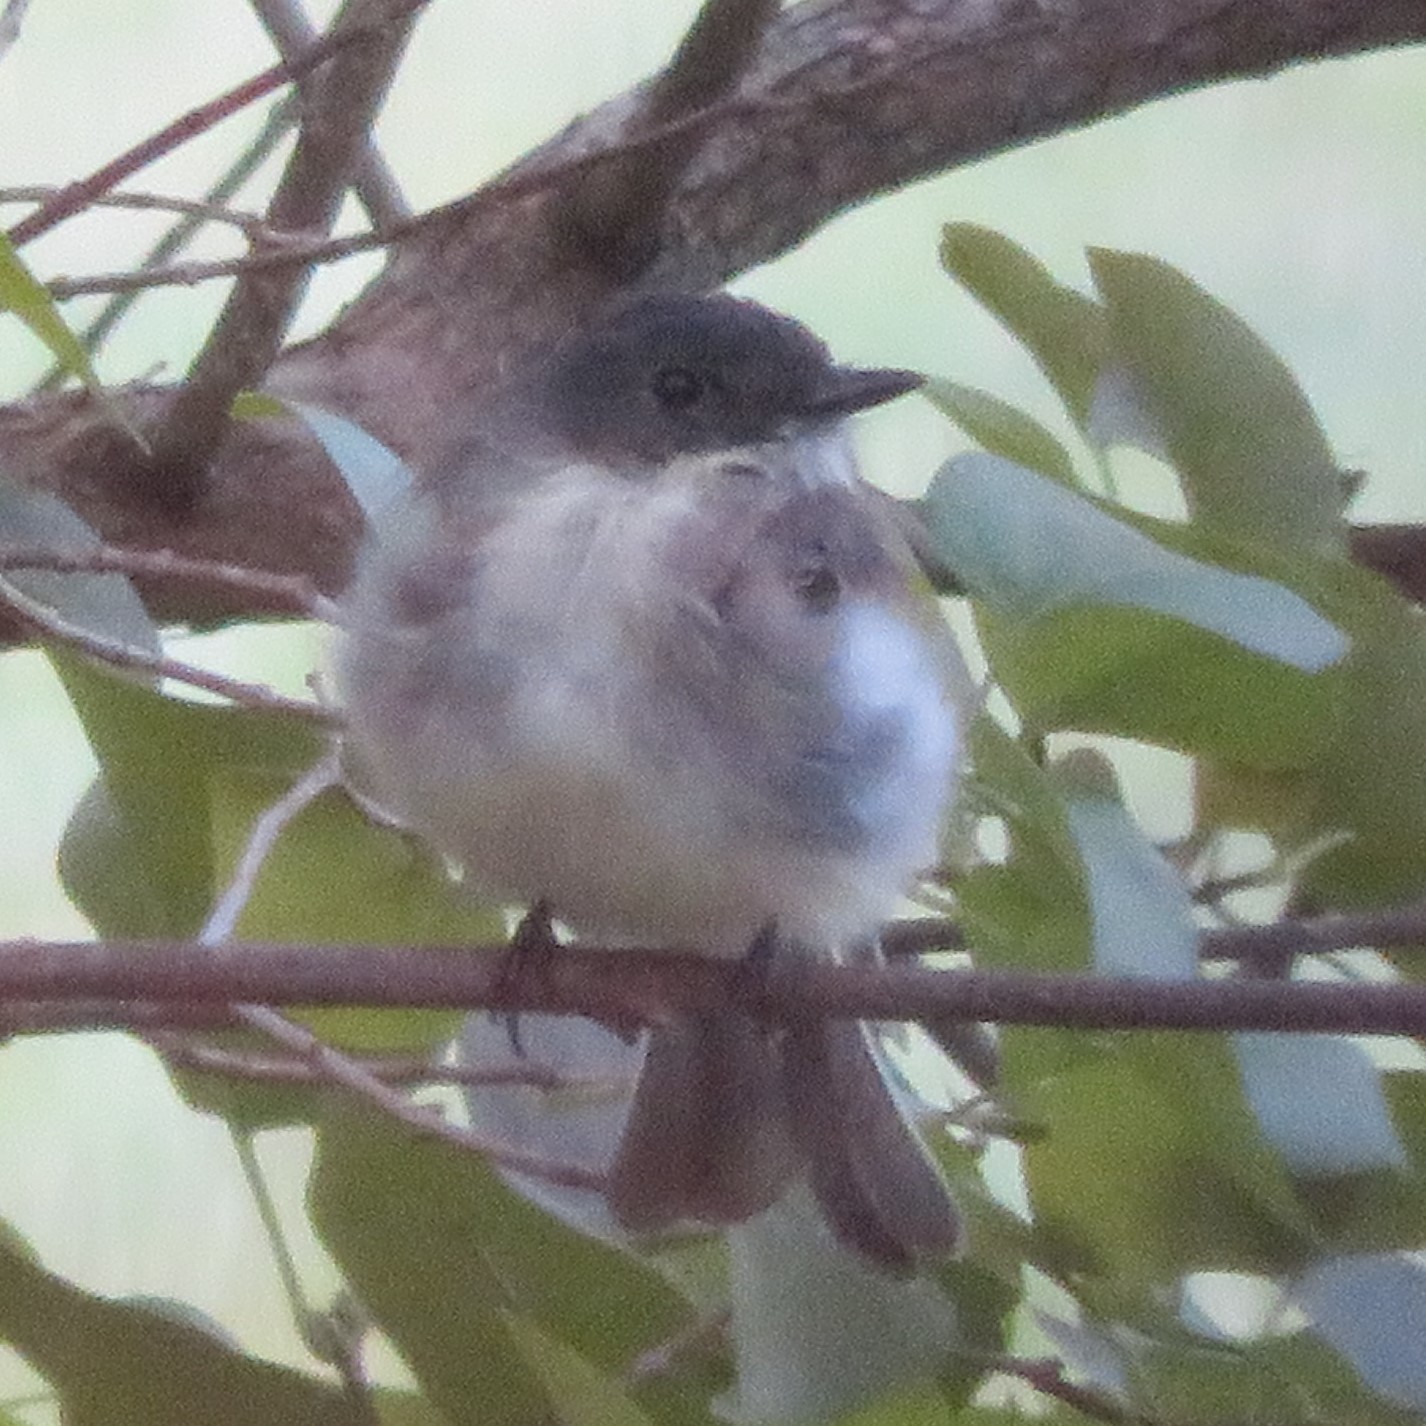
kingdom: Animalia
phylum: Chordata
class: Aves
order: Passeriformes
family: Tyrannidae
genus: Sayornis
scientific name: Sayornis phoebe
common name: Eastern phoebe
